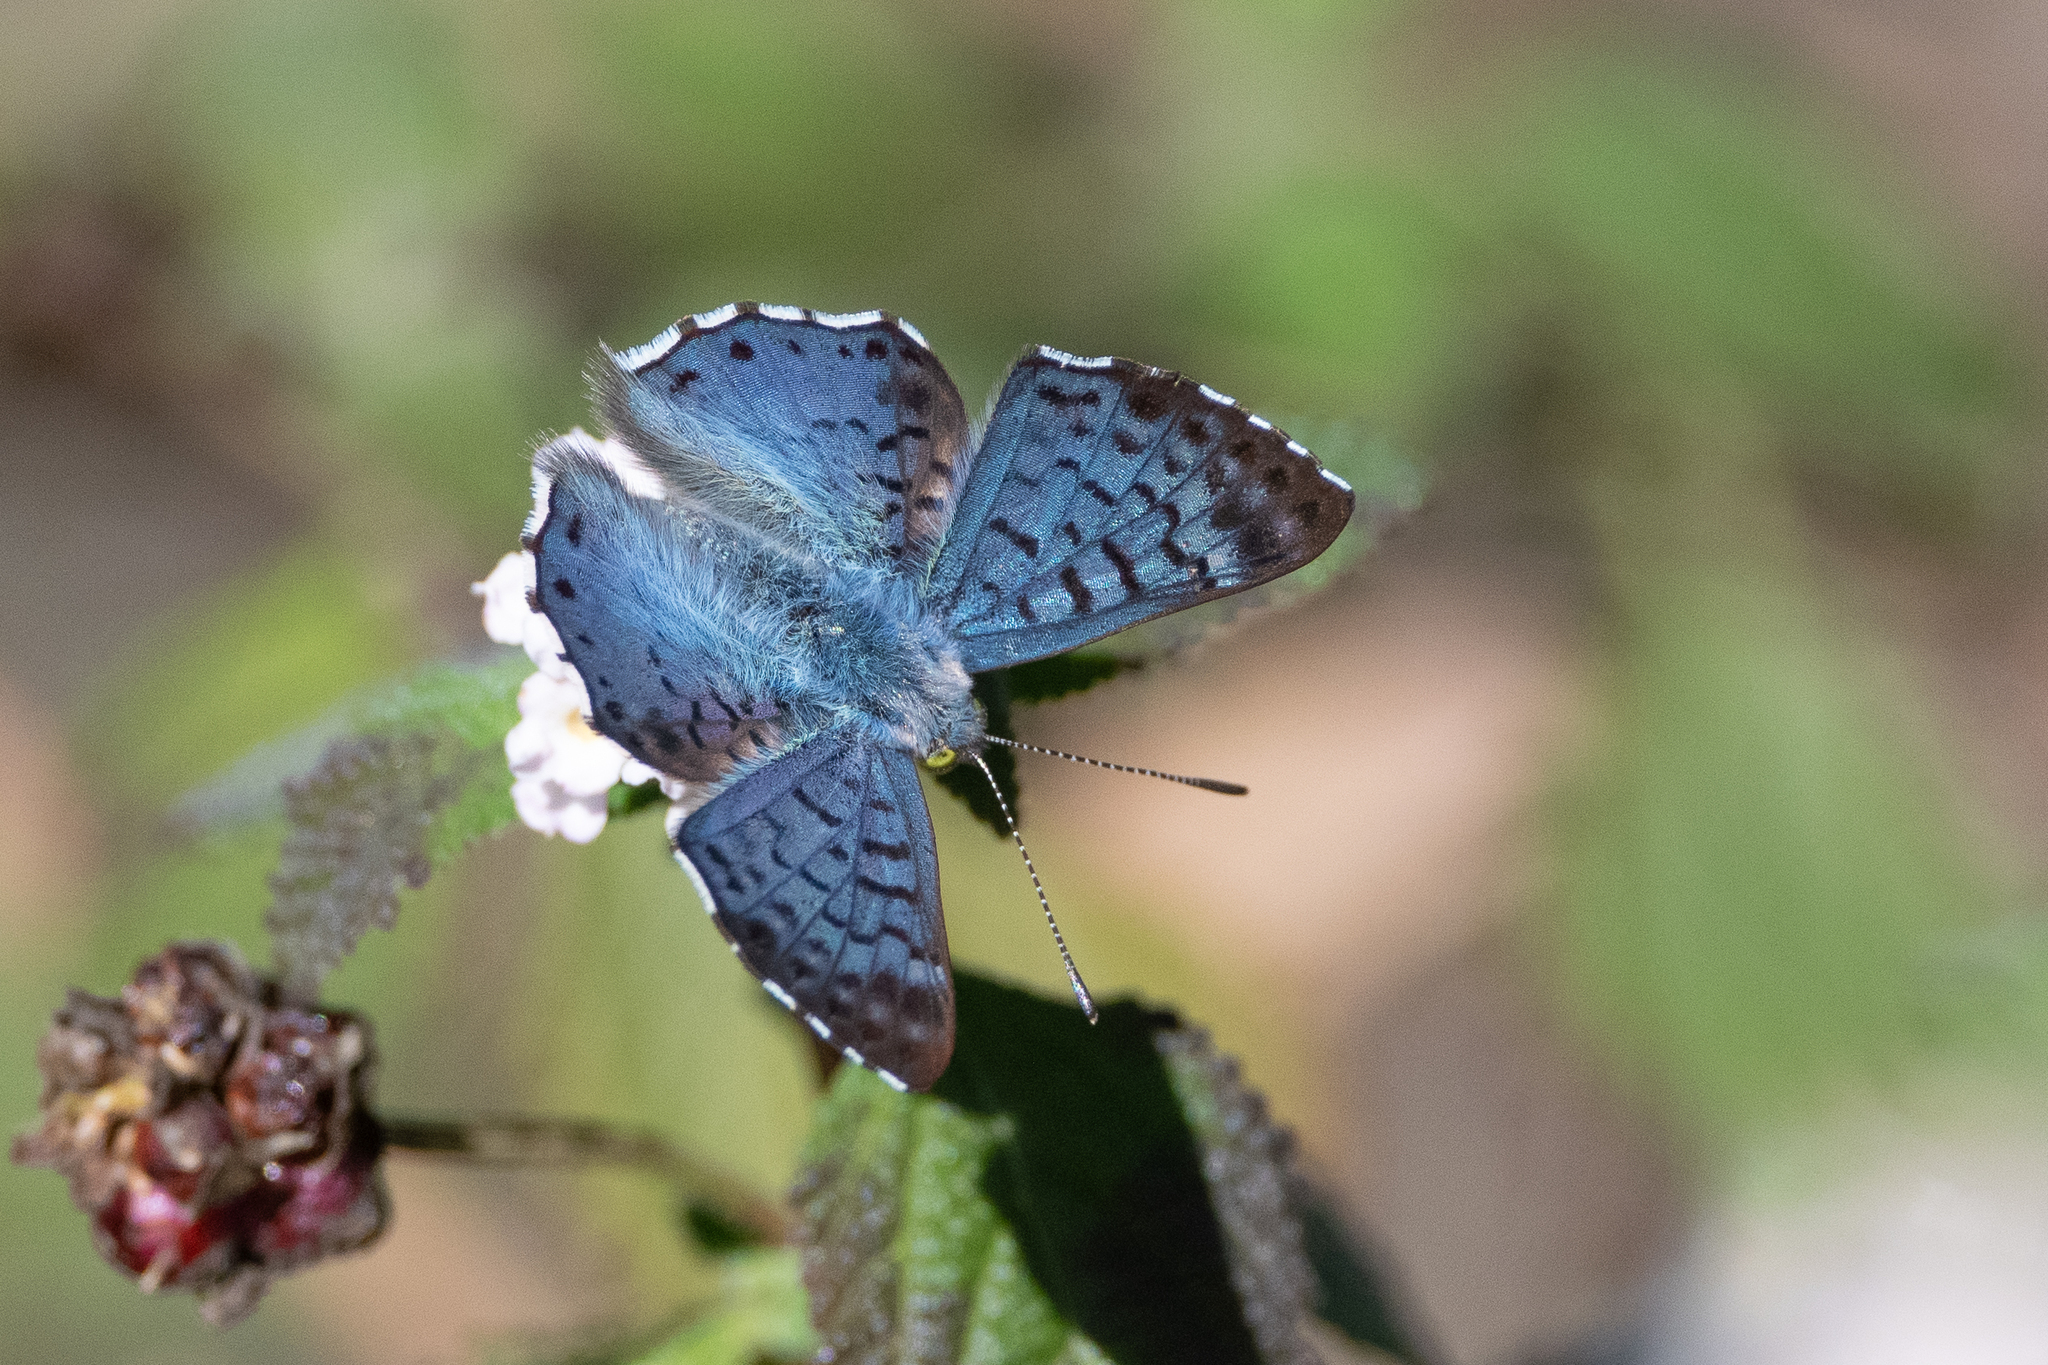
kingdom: Animalia
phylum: Arthropoda
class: Insecta
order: Lepidoptera
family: Riodinidae
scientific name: Riodinidae
